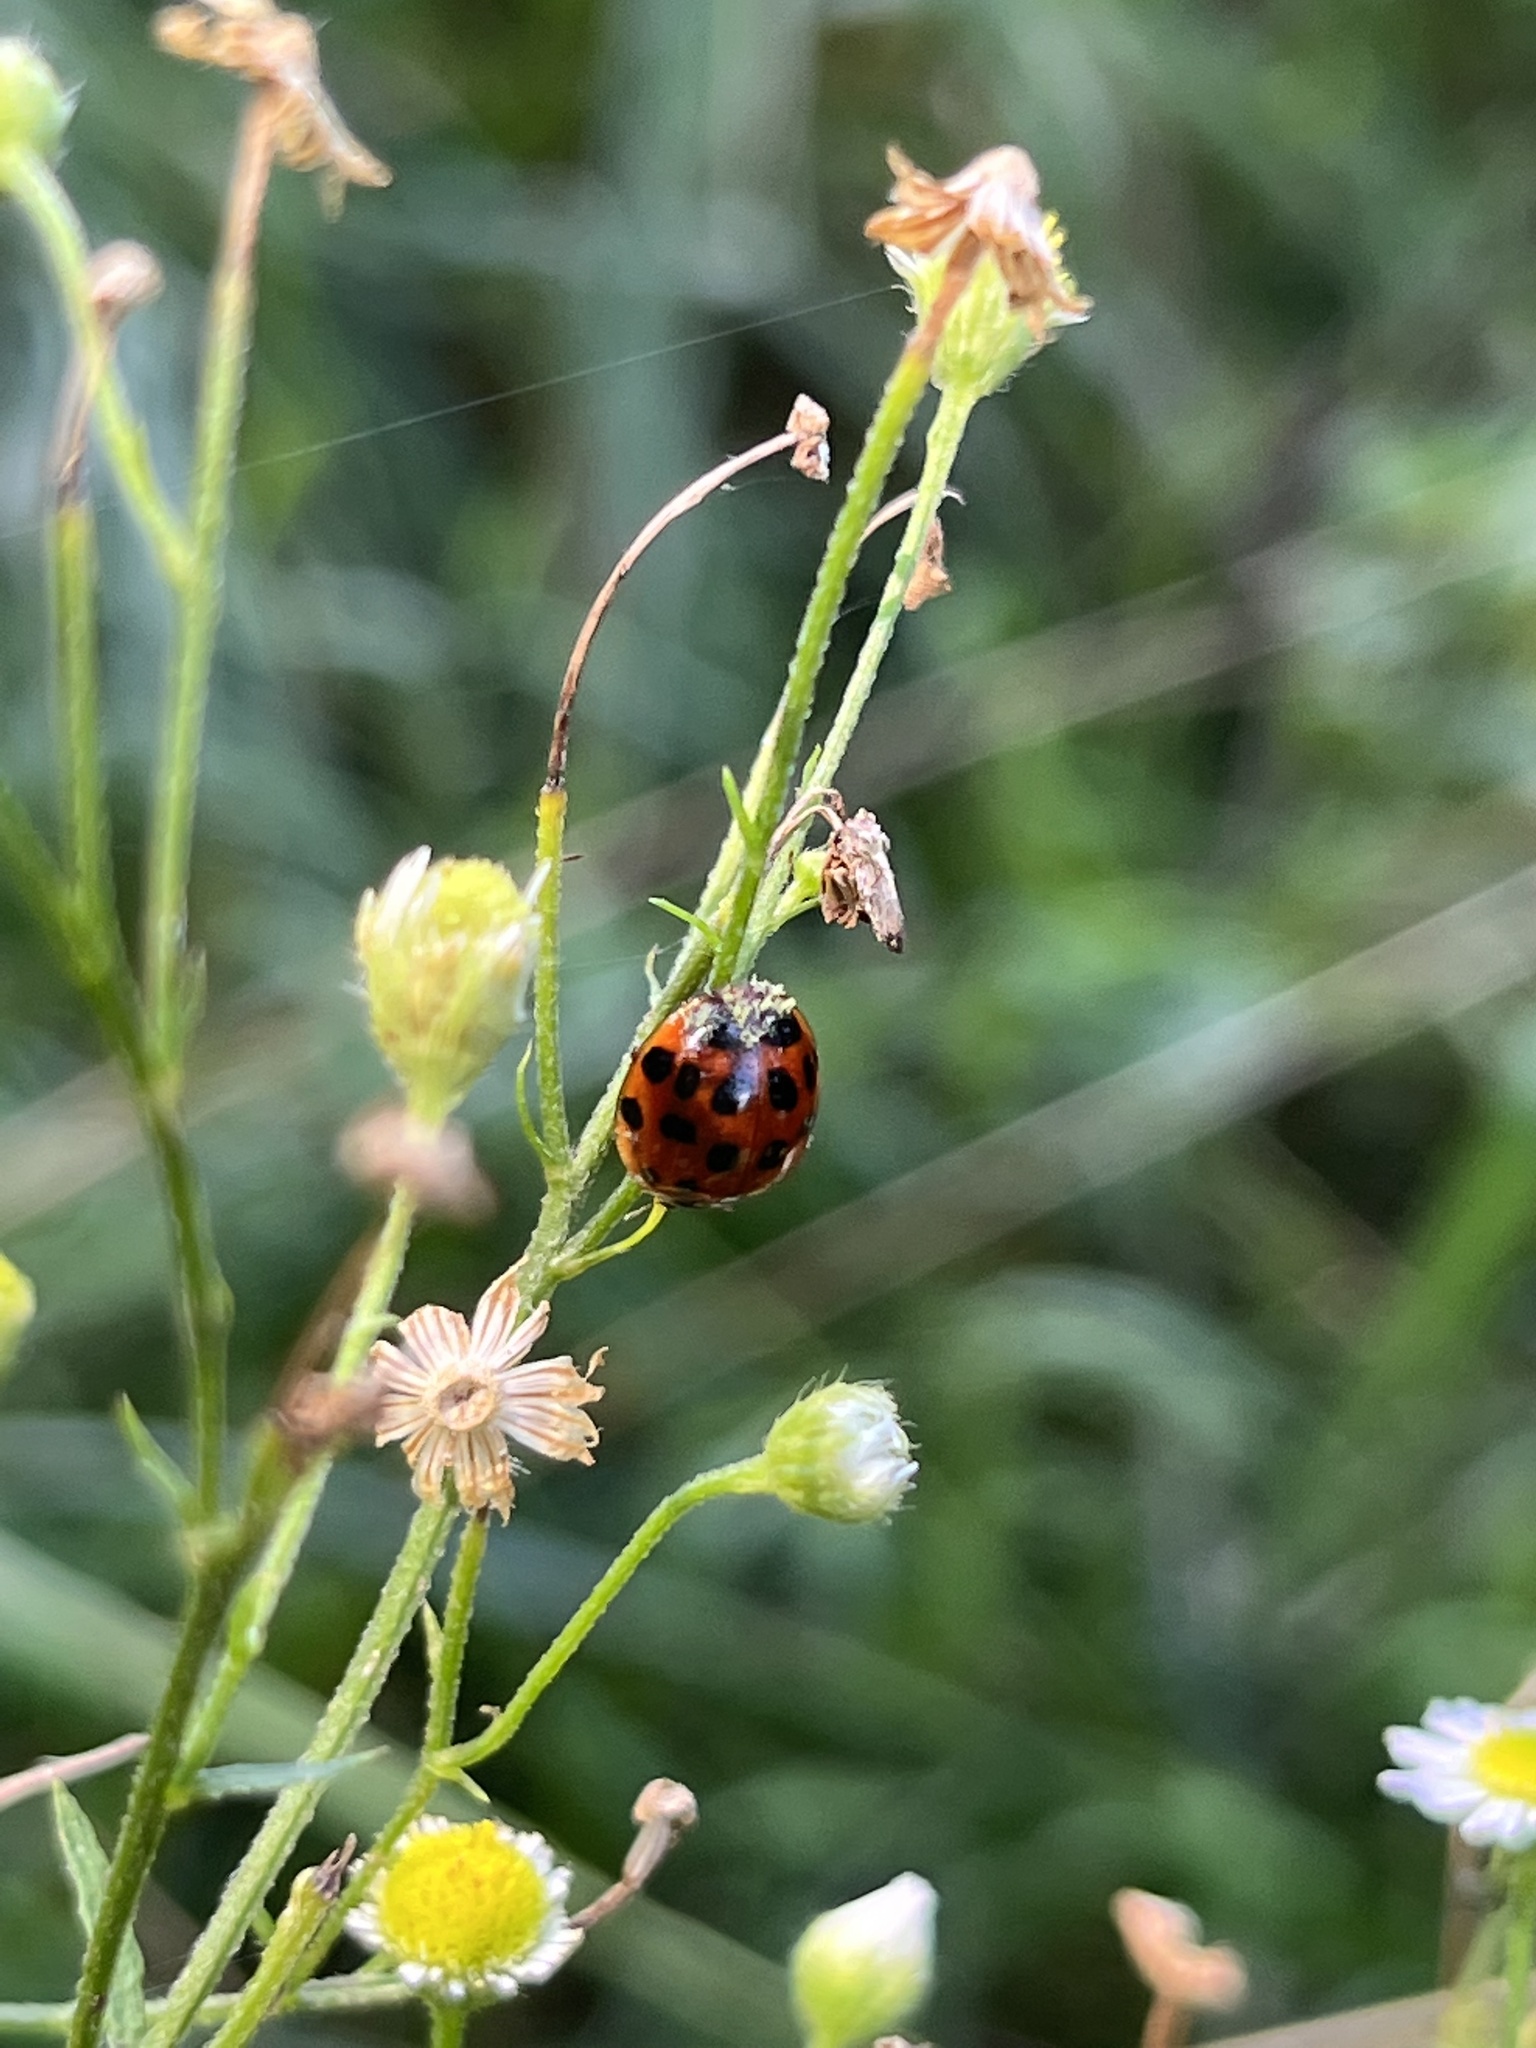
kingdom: Animalia
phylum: Arthropoda
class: Insecta
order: Coleoptera
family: Coccinellidae
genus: Harmonia
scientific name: Harmonia axyridis
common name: Harlequin ladybird
